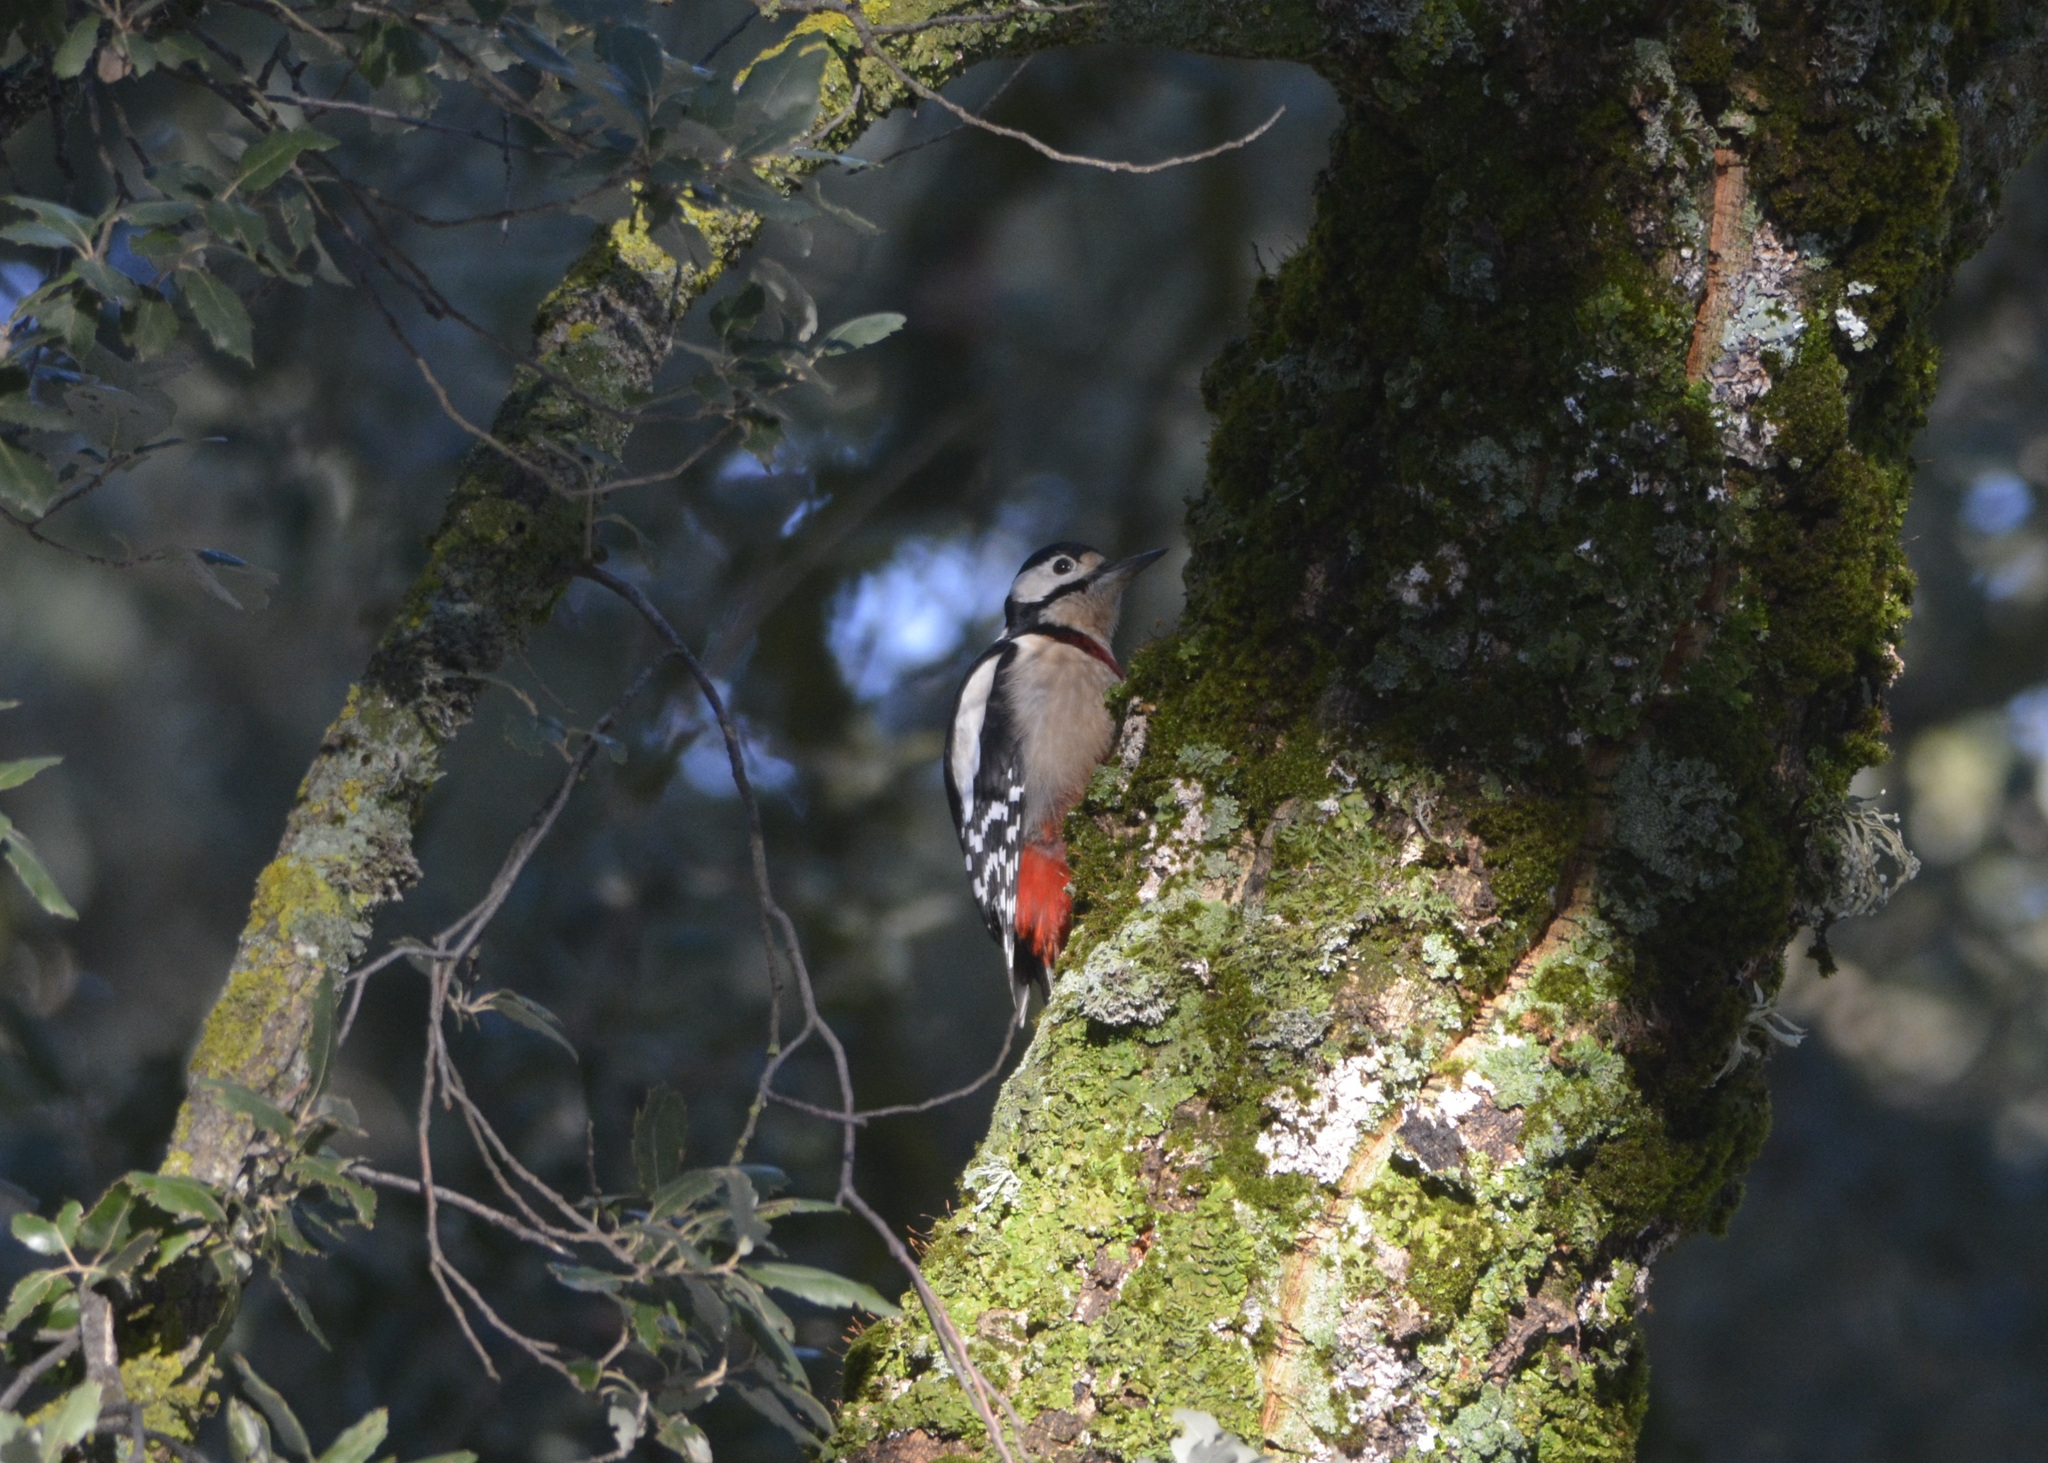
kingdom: Animalia
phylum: Chordata
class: Aves
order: Piciformes
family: Picidae
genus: Dendrocopos
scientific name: Dendrocopos major
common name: Great spotted woodpecker
